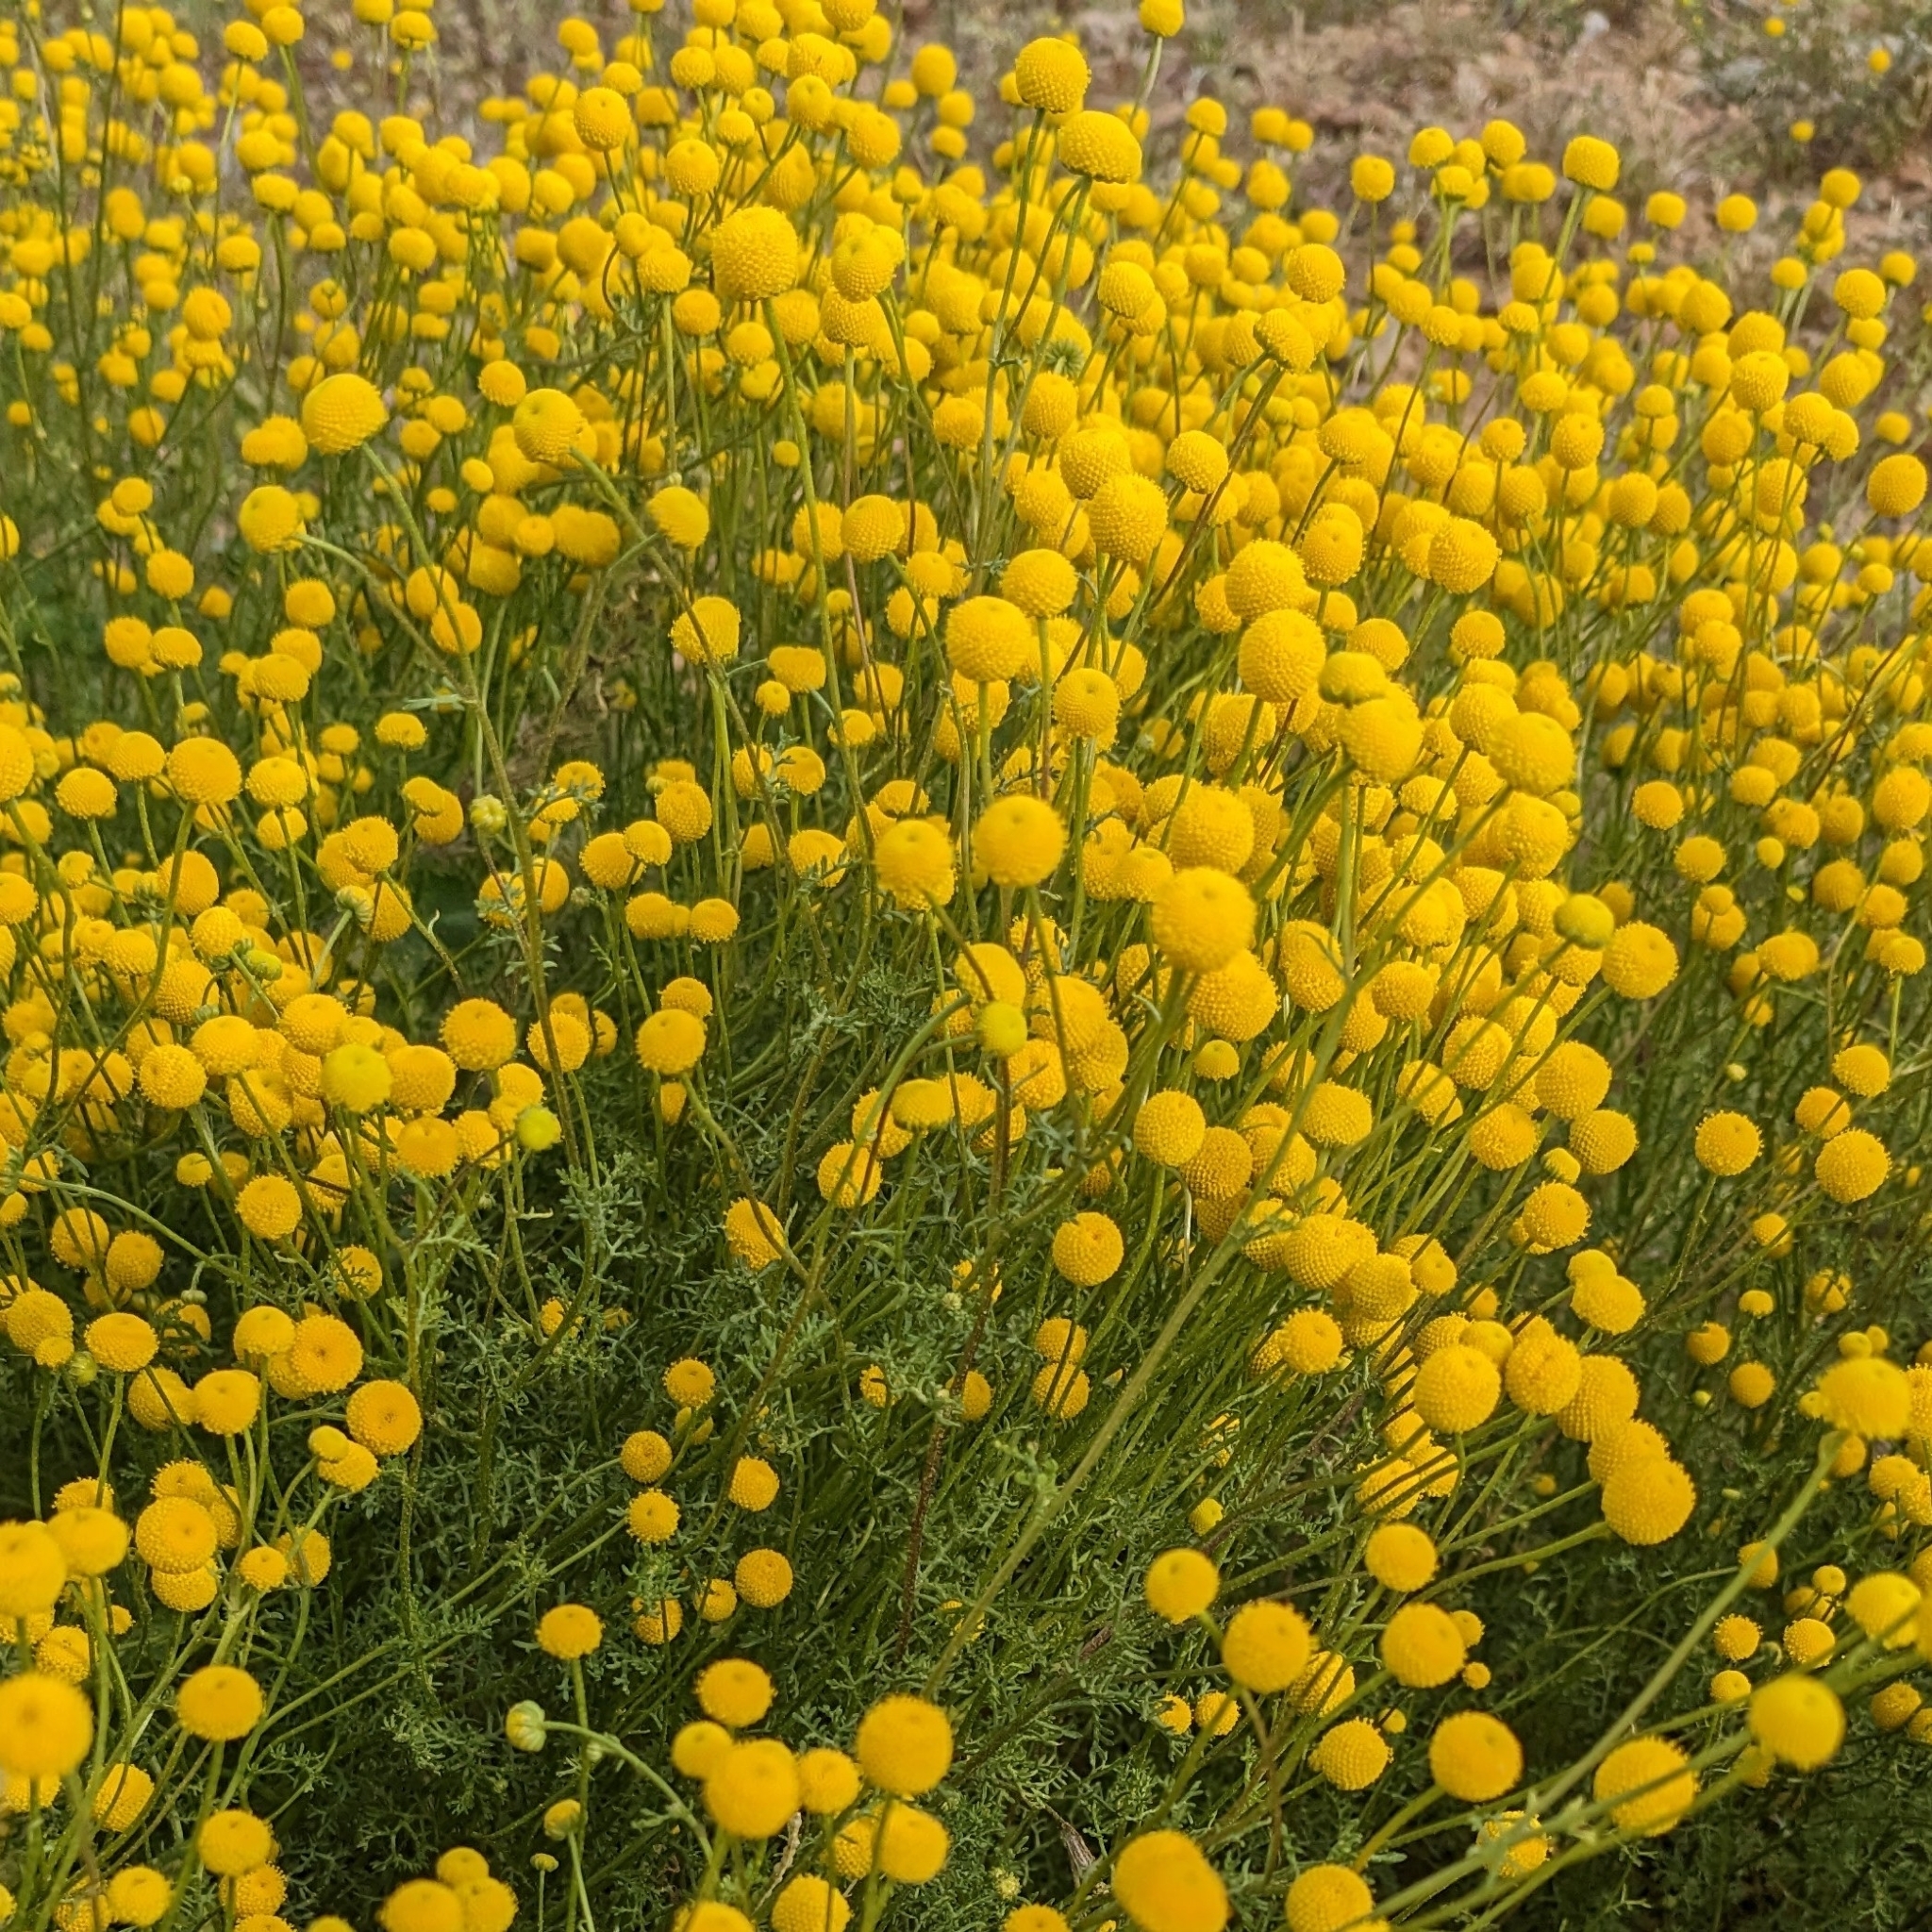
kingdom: Plantae
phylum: Tracheophyta
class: Magnoliopsida
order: Asterales
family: Asteraceae
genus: Oncosiphon
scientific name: Oncosiphon pilulifer
